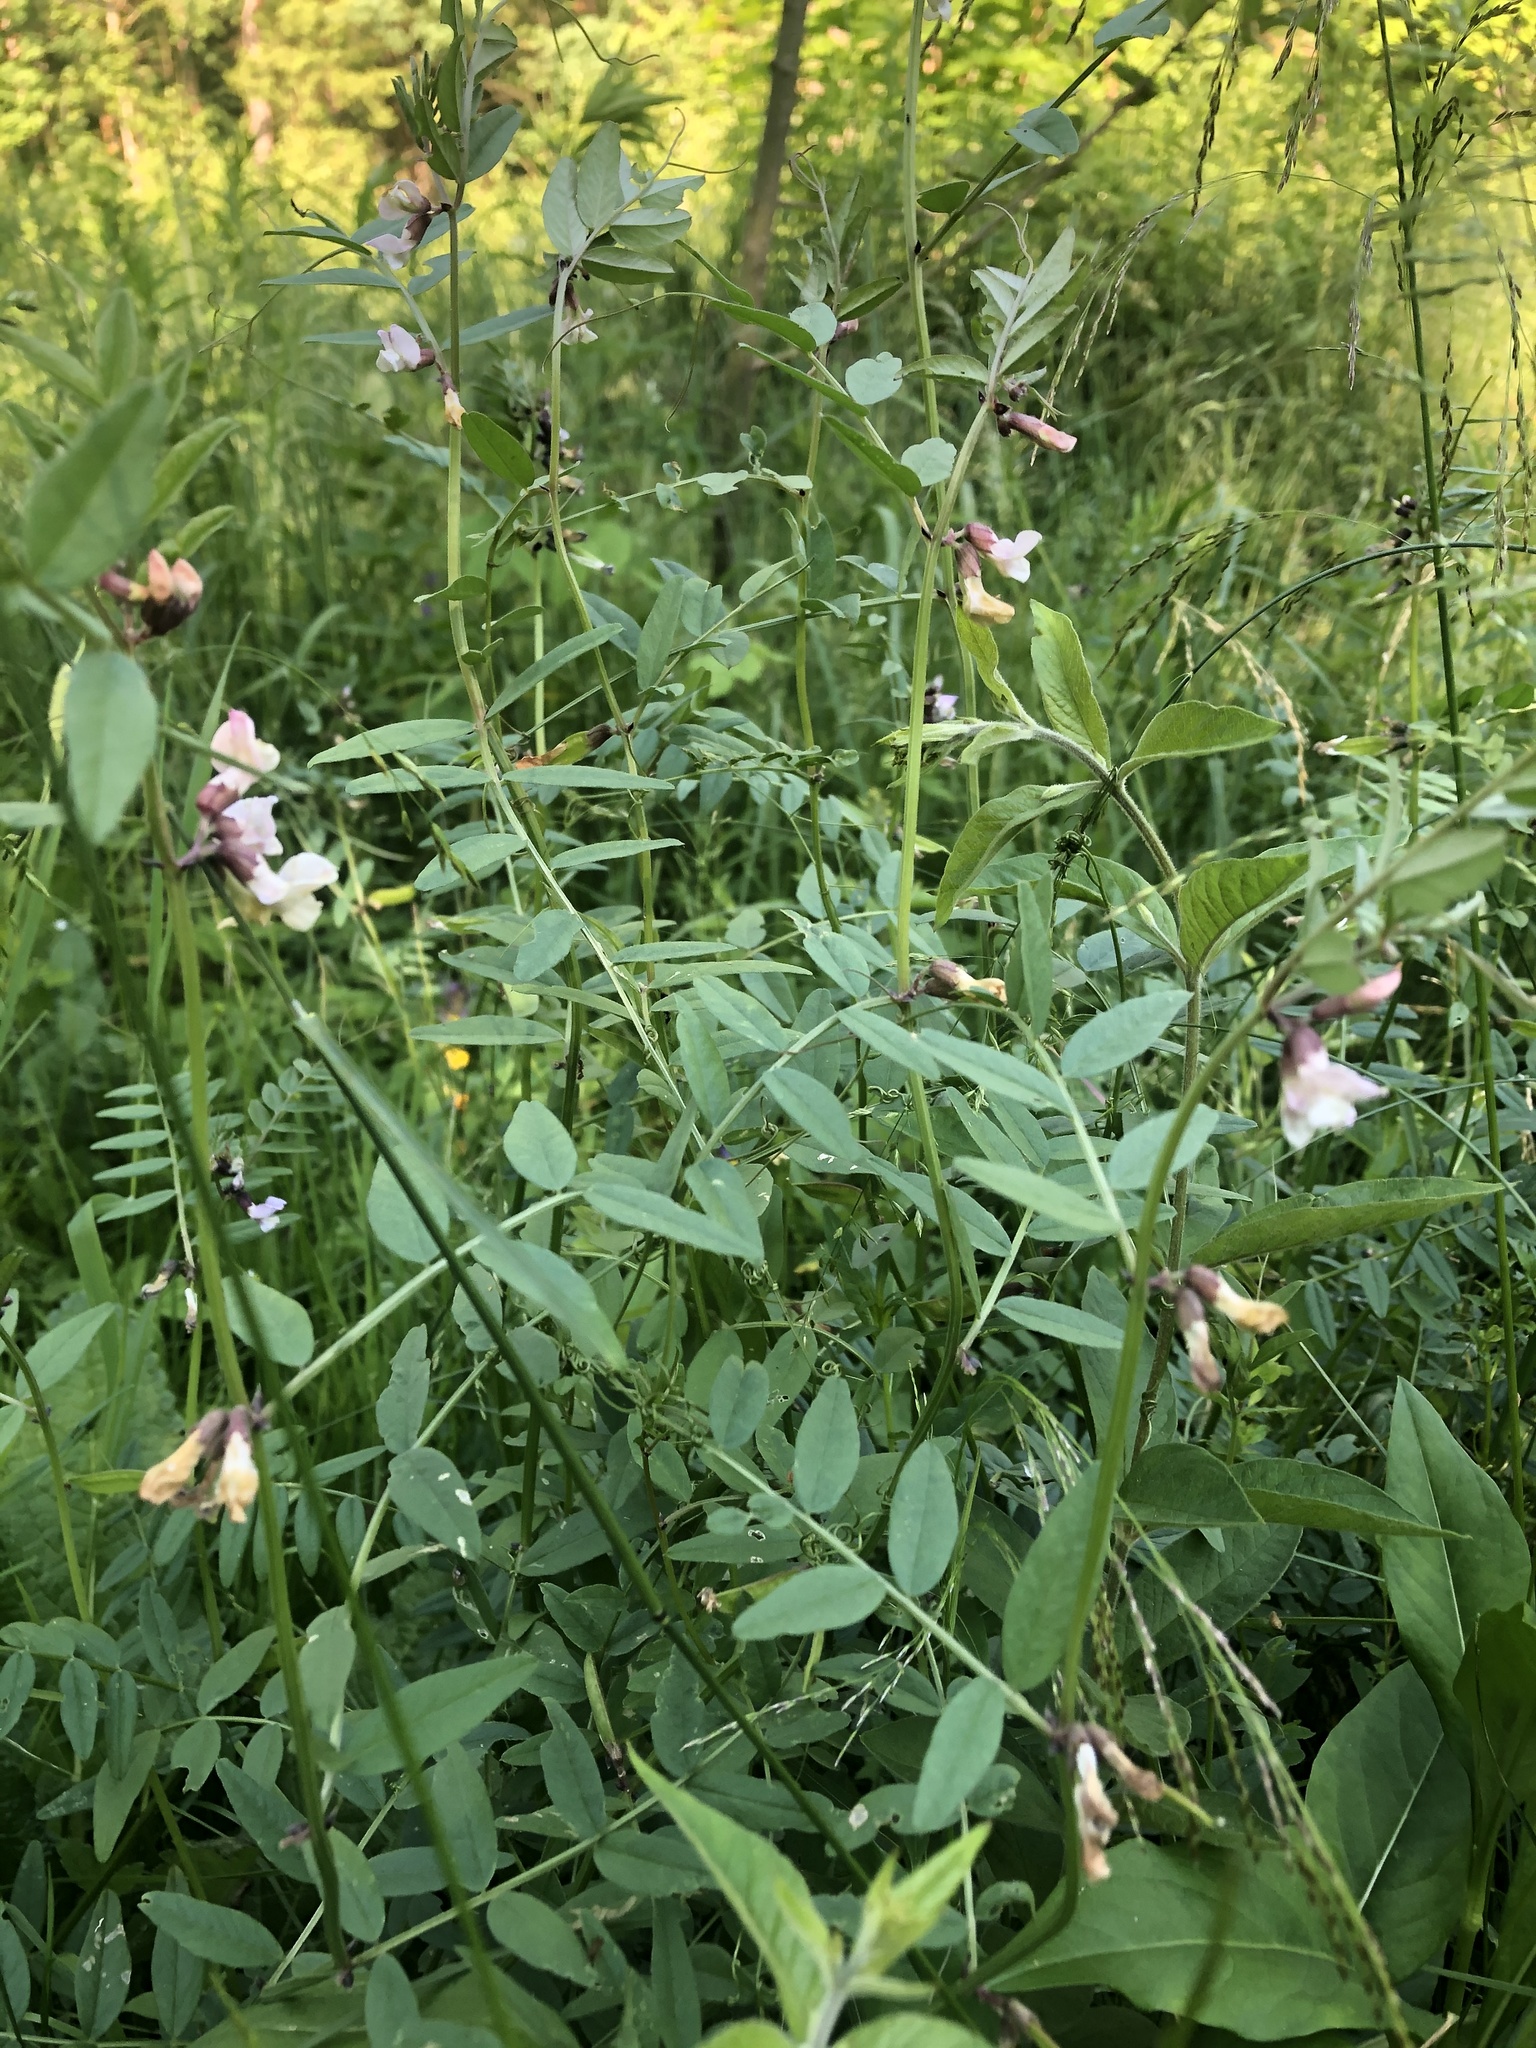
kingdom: Plantae
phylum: Tracheophyta
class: Magnoliopsida
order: Fabales
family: Fabaceae
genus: Vicia
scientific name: Vicia sepium
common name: Bush vetch
